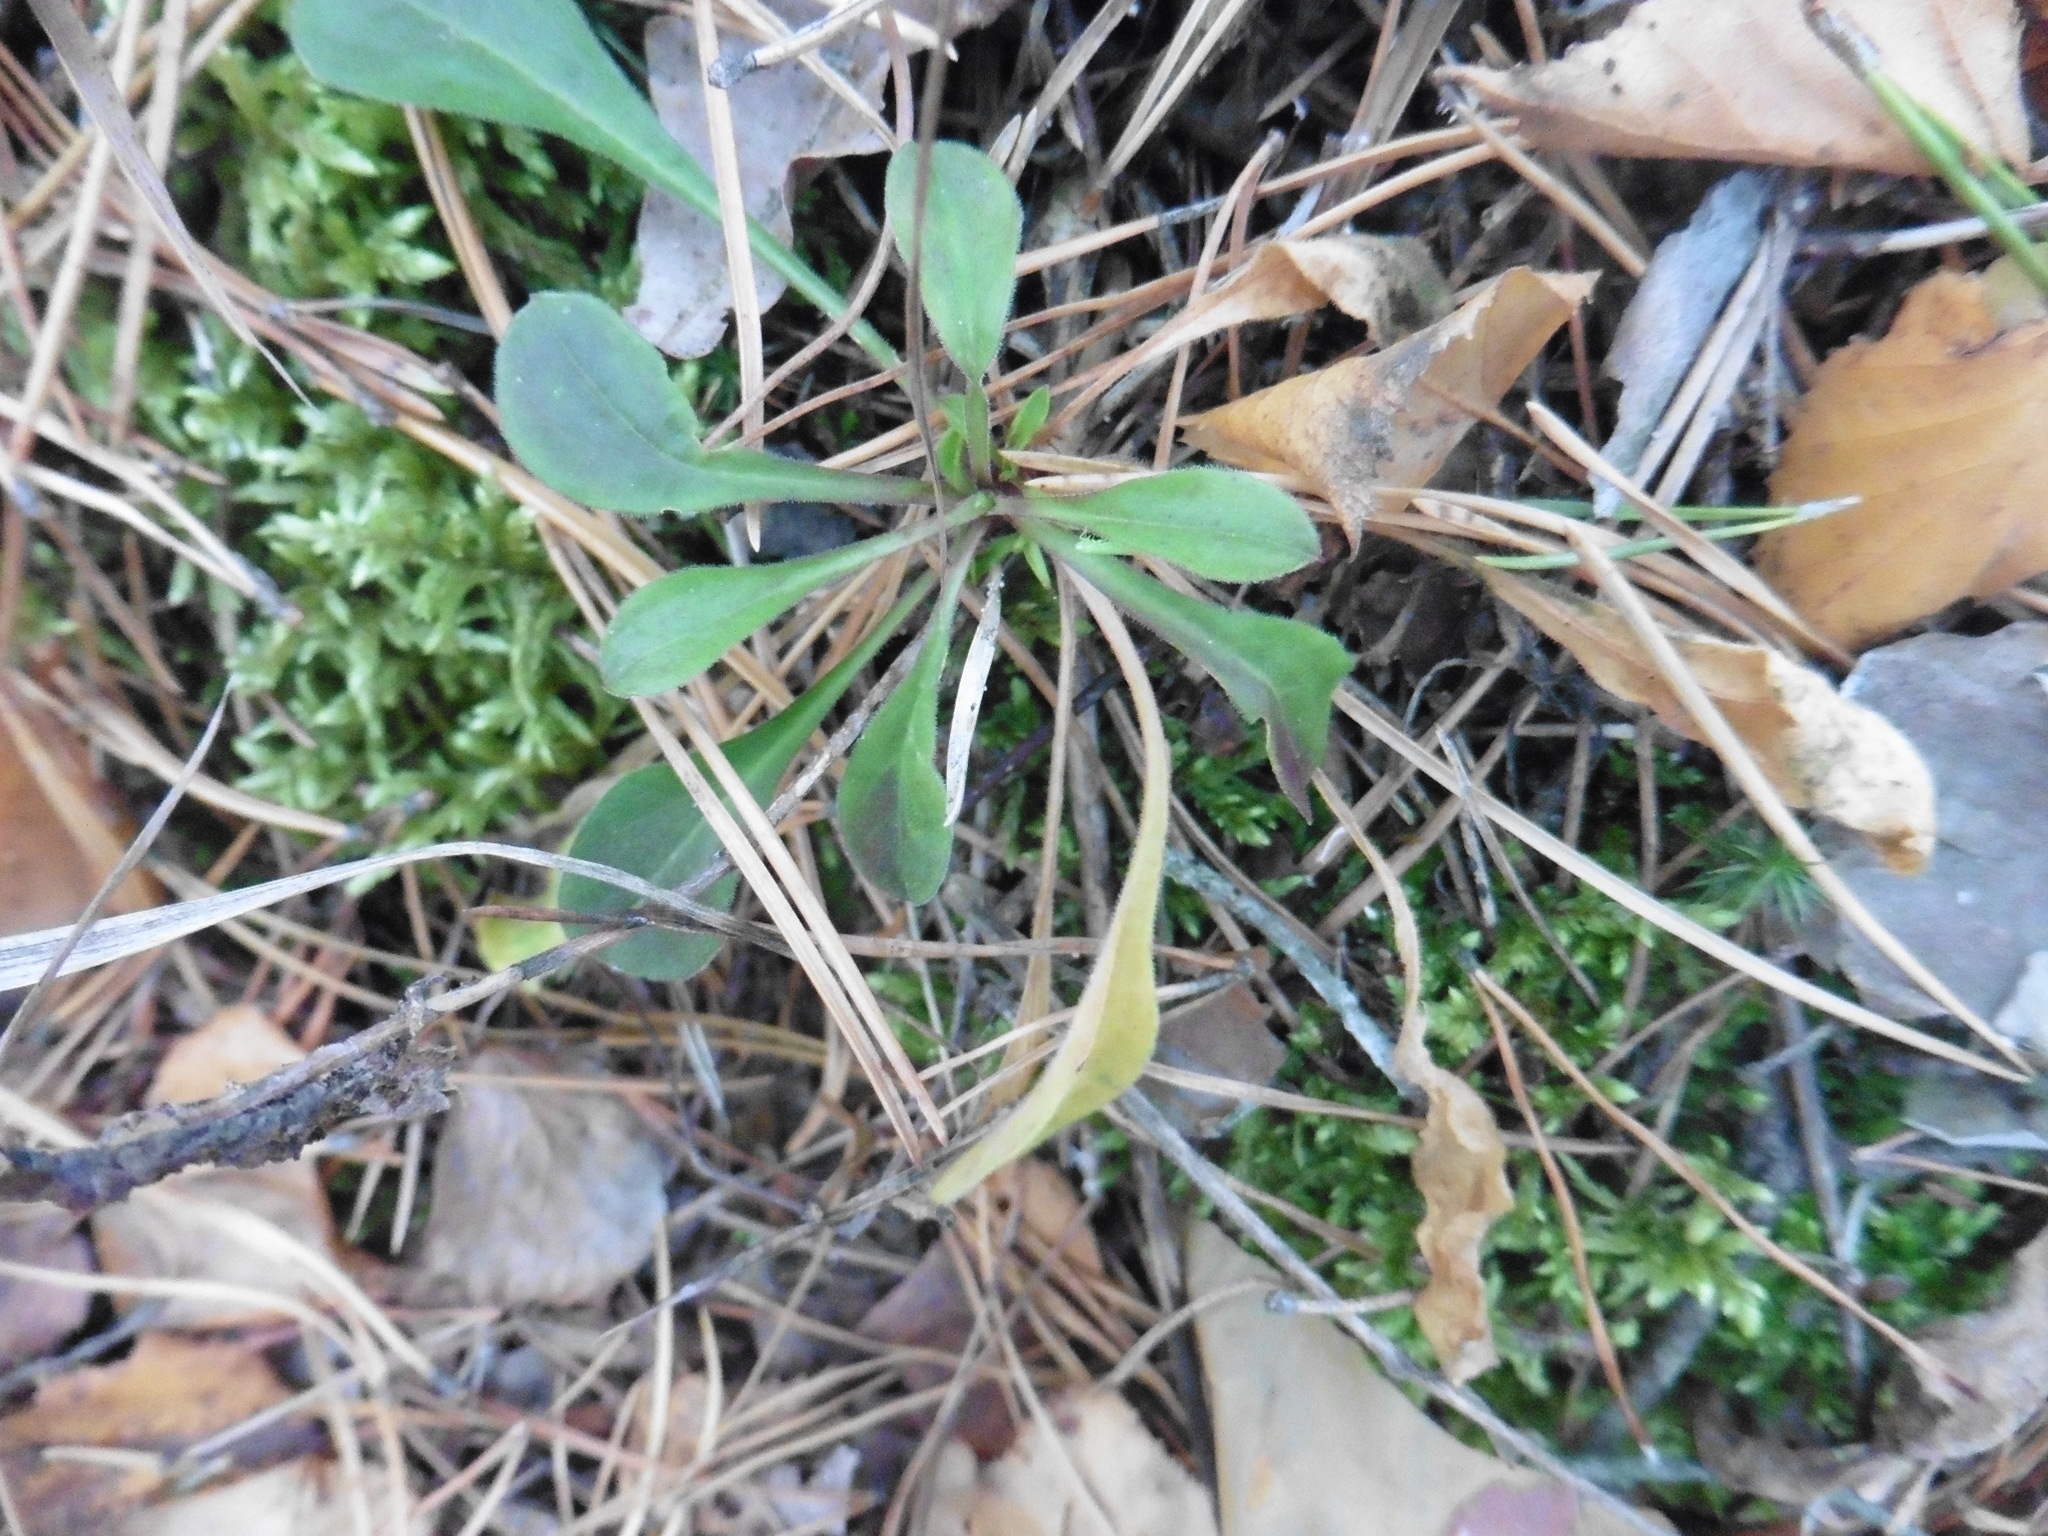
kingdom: Plantae
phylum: Tracheophyta
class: Magnoliopsida
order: Caryophyllales
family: Caryophyllaceae
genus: Silene
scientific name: Silene nutans
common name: Nottingham catchfly
